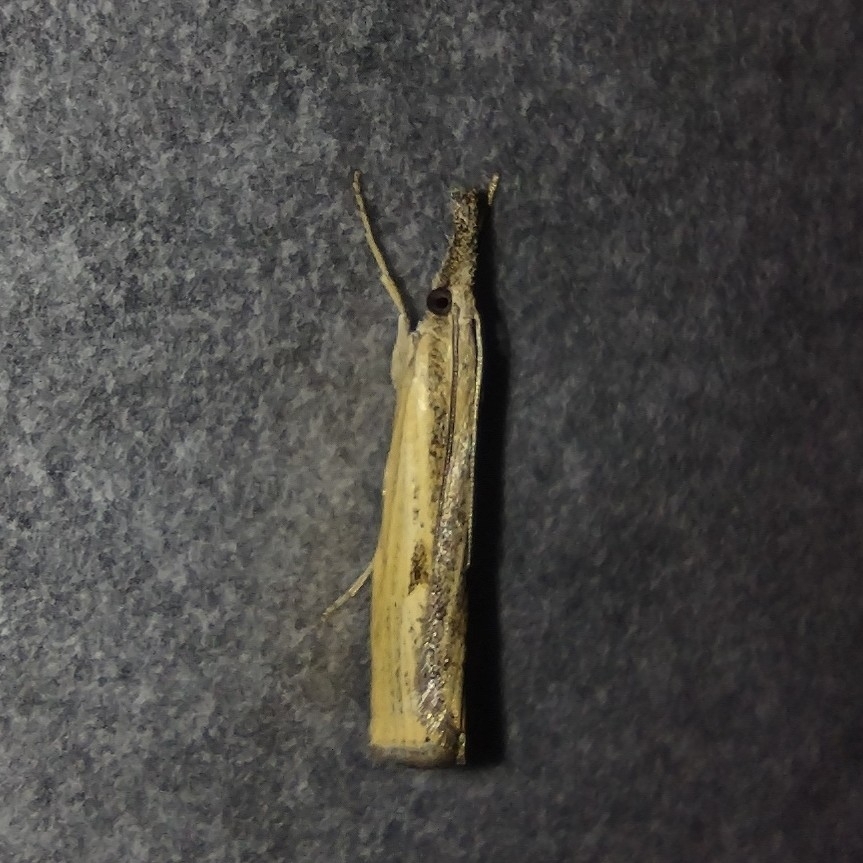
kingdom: Animalia
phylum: Arthropoda
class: Insecta
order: Lepidoptera
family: Crambidae
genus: Agriphila
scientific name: Agriphila inquinatella
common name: Barred grass-veneer
